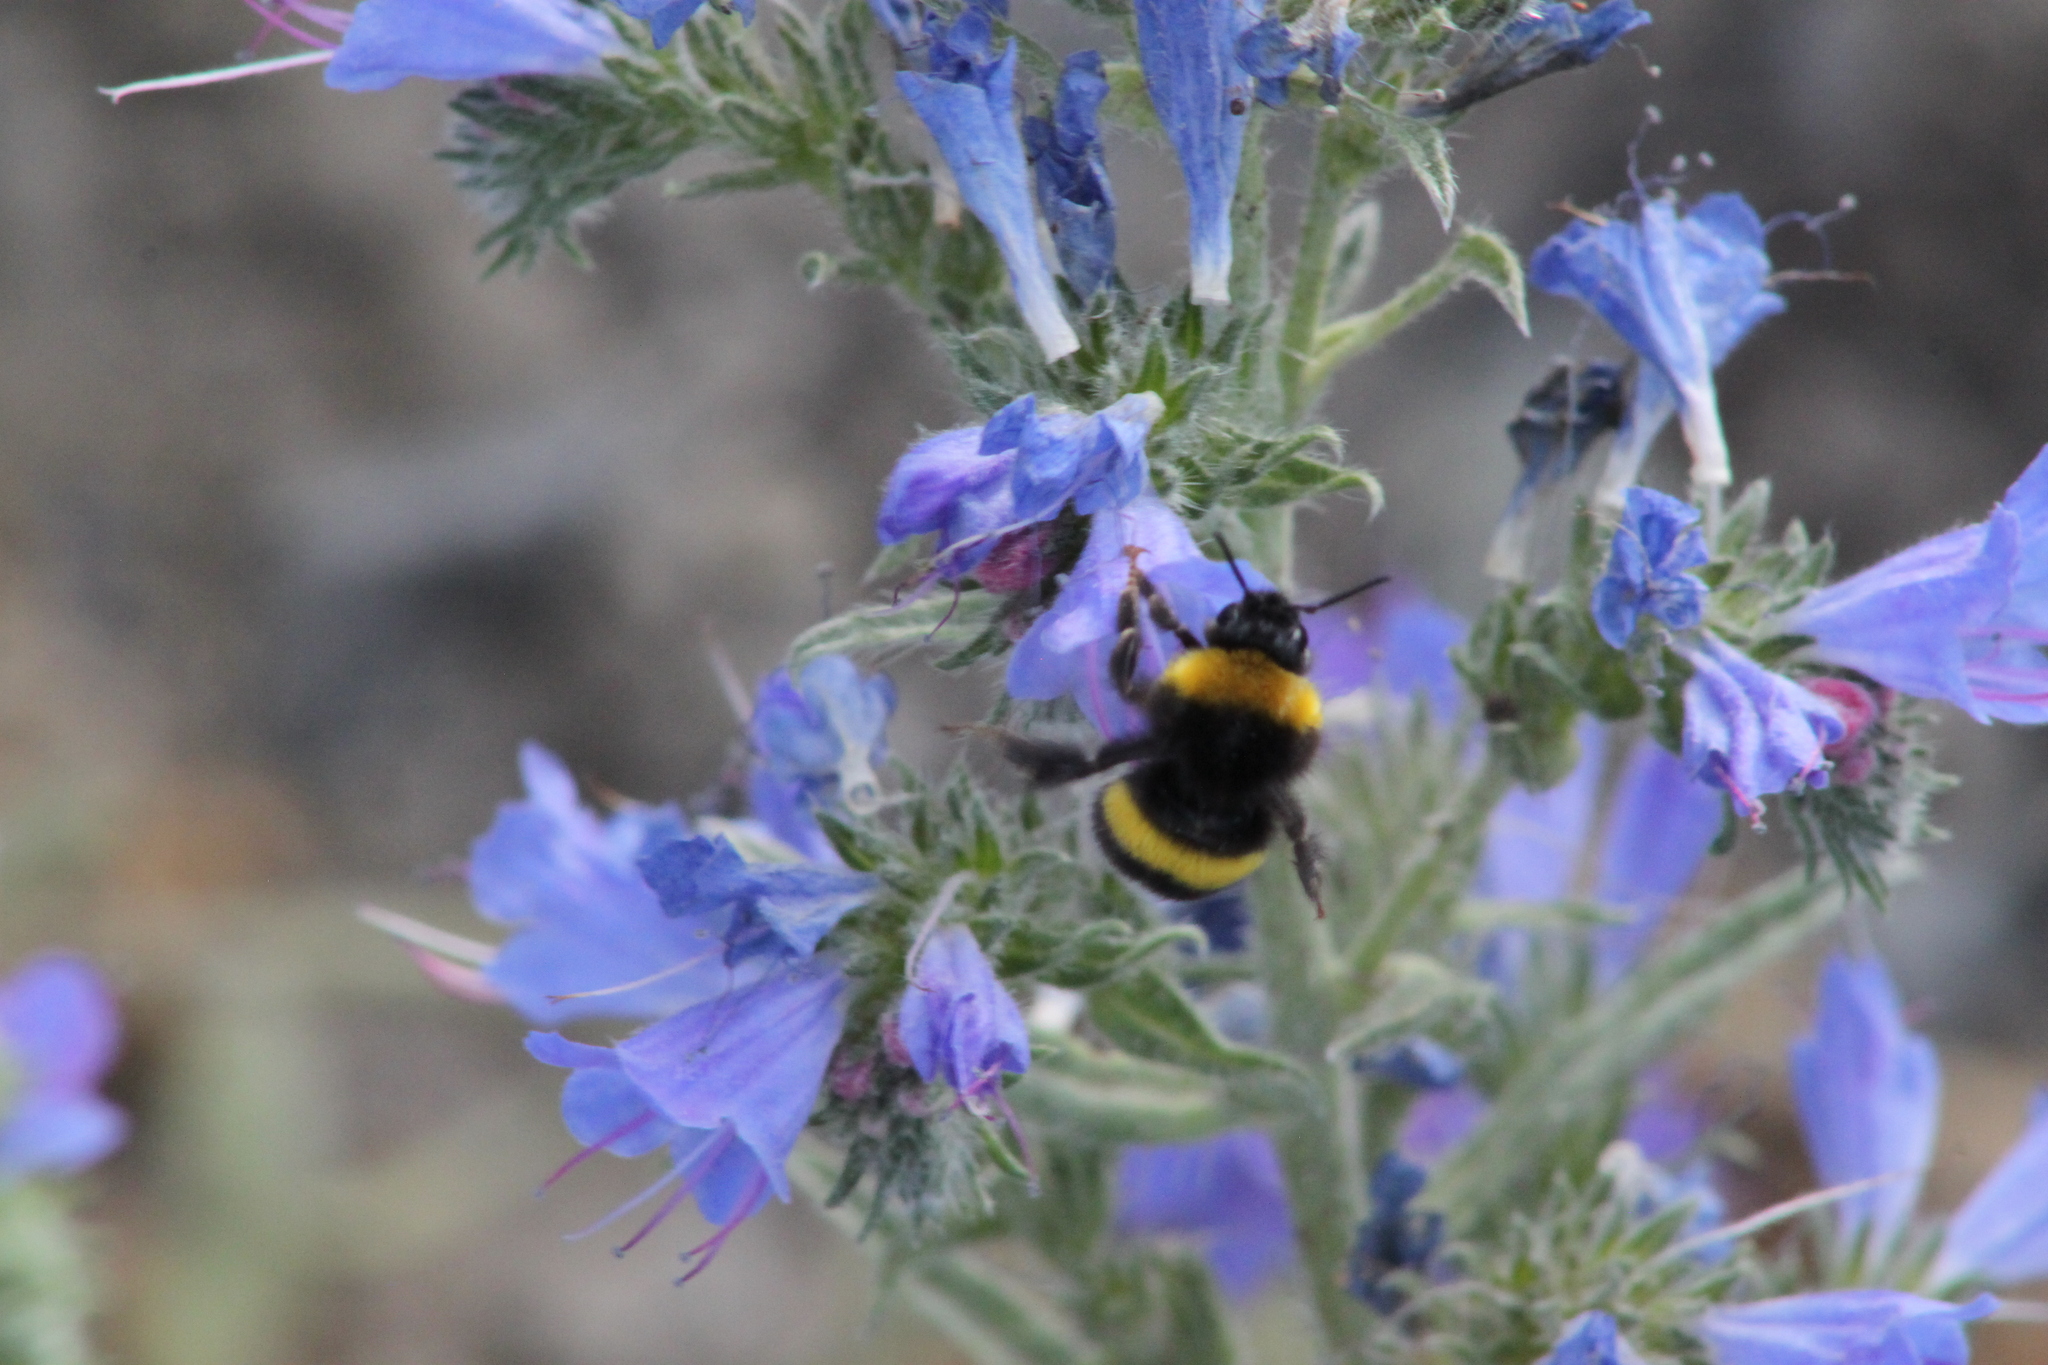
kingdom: Animalia
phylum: Arthropoda
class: Insecta
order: Hymenoptera
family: Apidae
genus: Bombus
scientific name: Bombus
